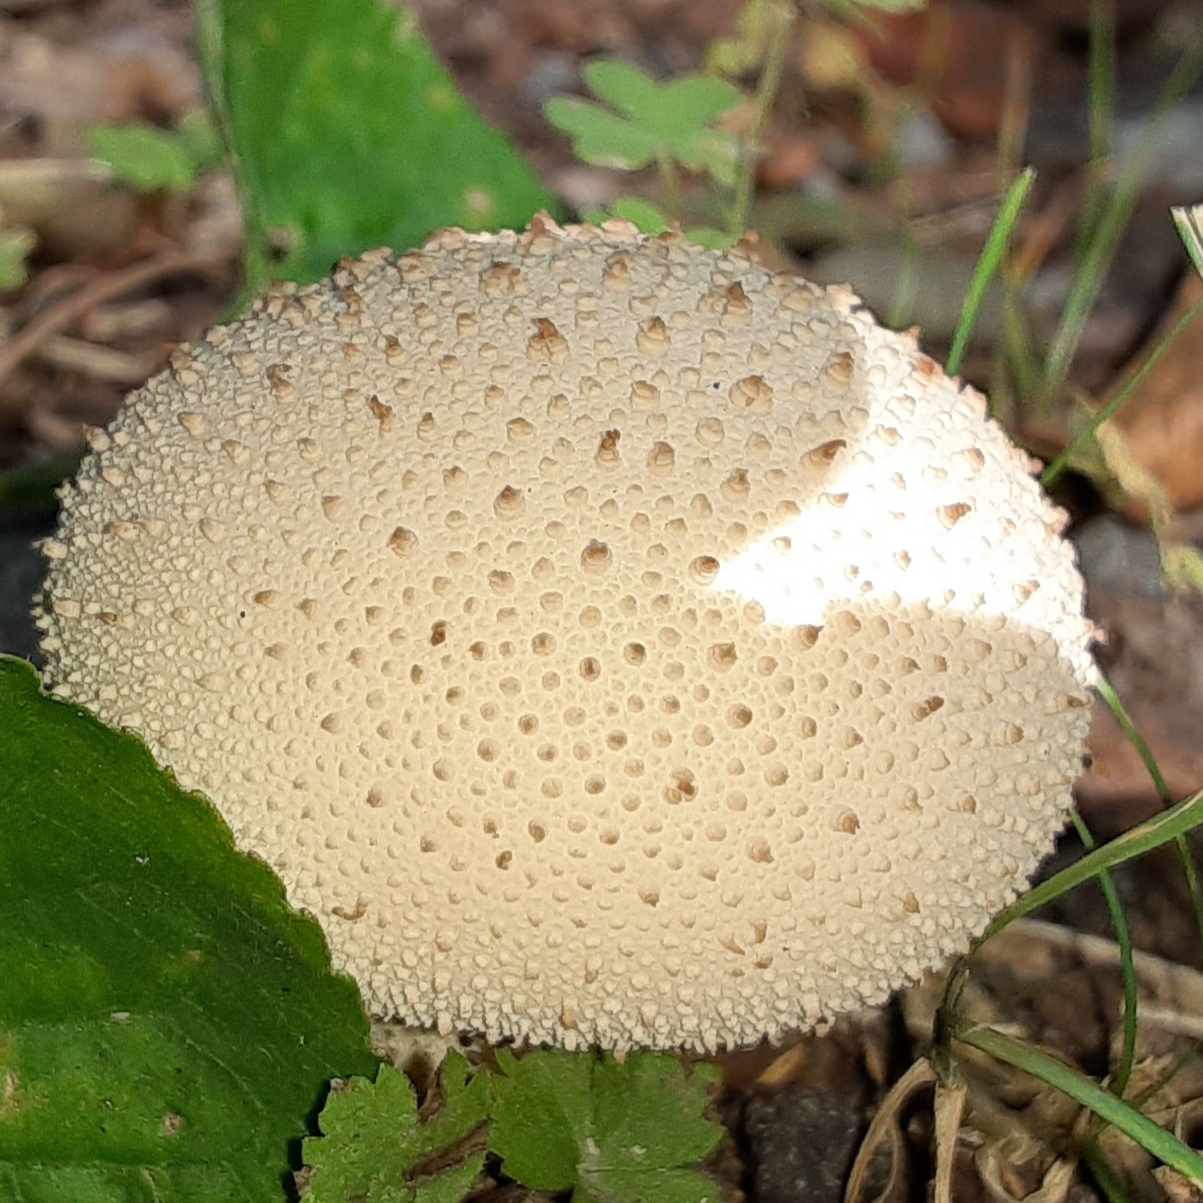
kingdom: Fungi
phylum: Basidiomycota
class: Agaricomycetes
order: Agaricales
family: Lycoperdaceae
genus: Lycoperdon
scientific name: Lycoperdon perlatum
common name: Common puffball
